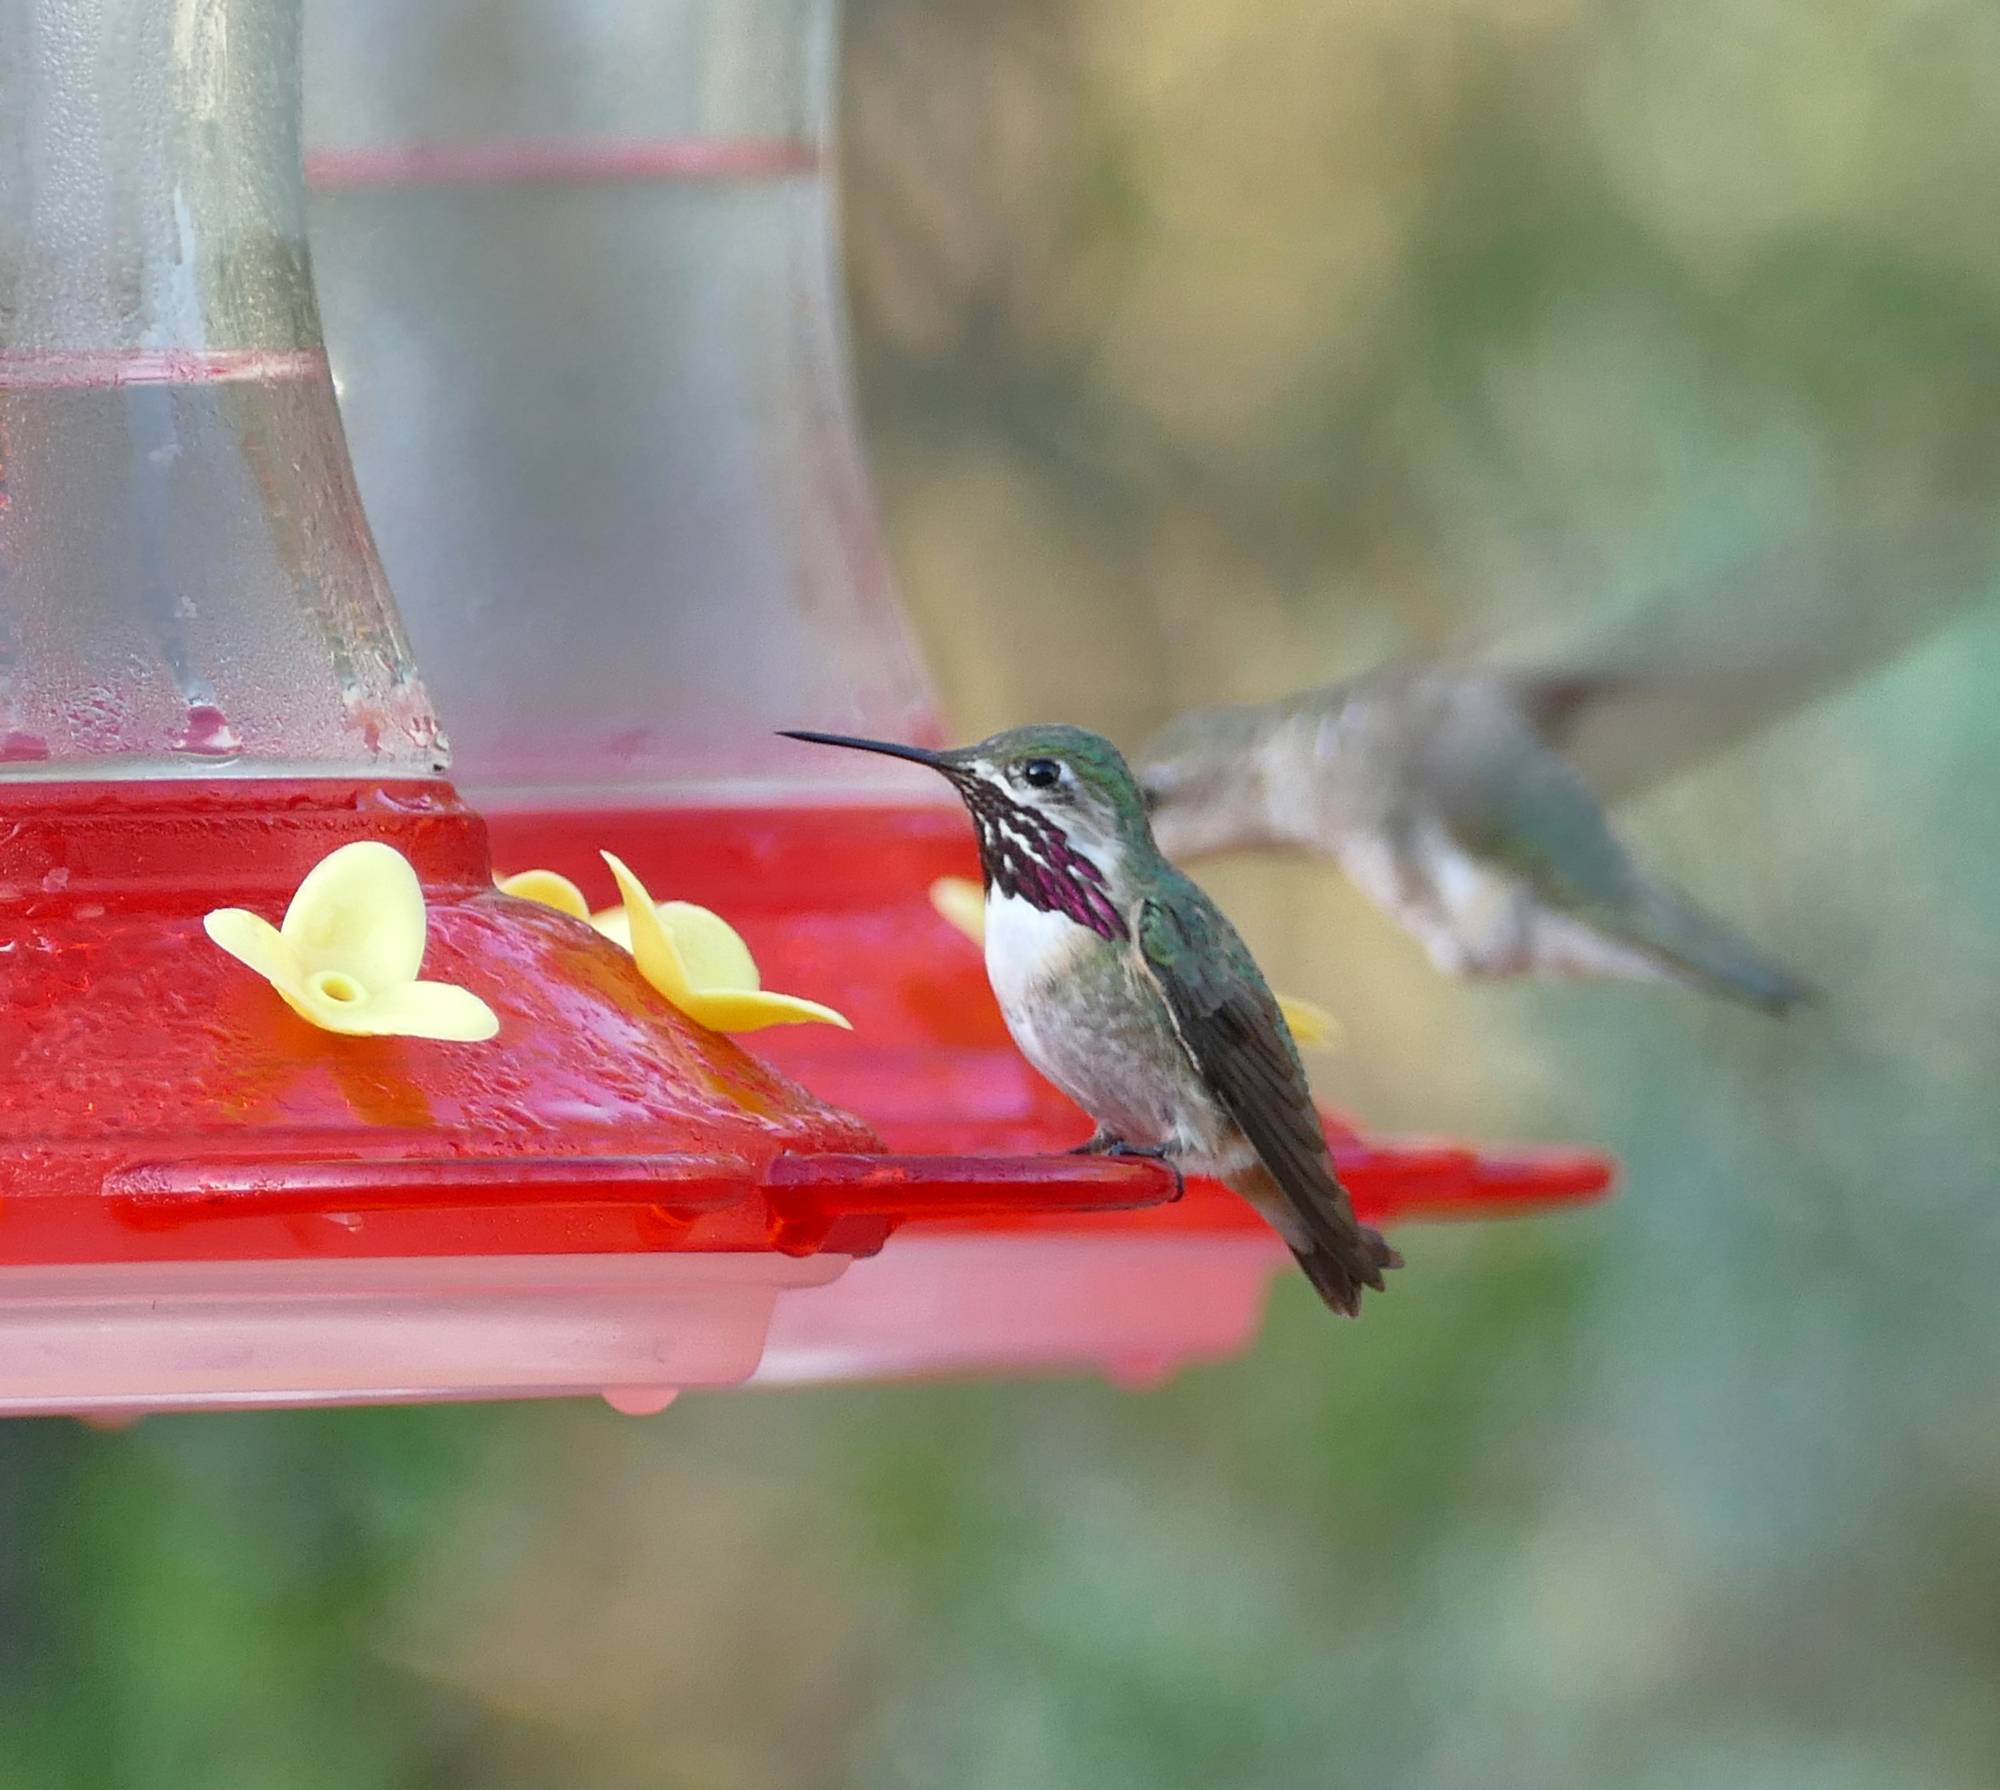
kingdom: Animalia
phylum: Chordata
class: Aves
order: Apodiformes
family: Trochilidae
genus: Selasphorus
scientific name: Selasphorus calliope
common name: Calliope hummingbird
